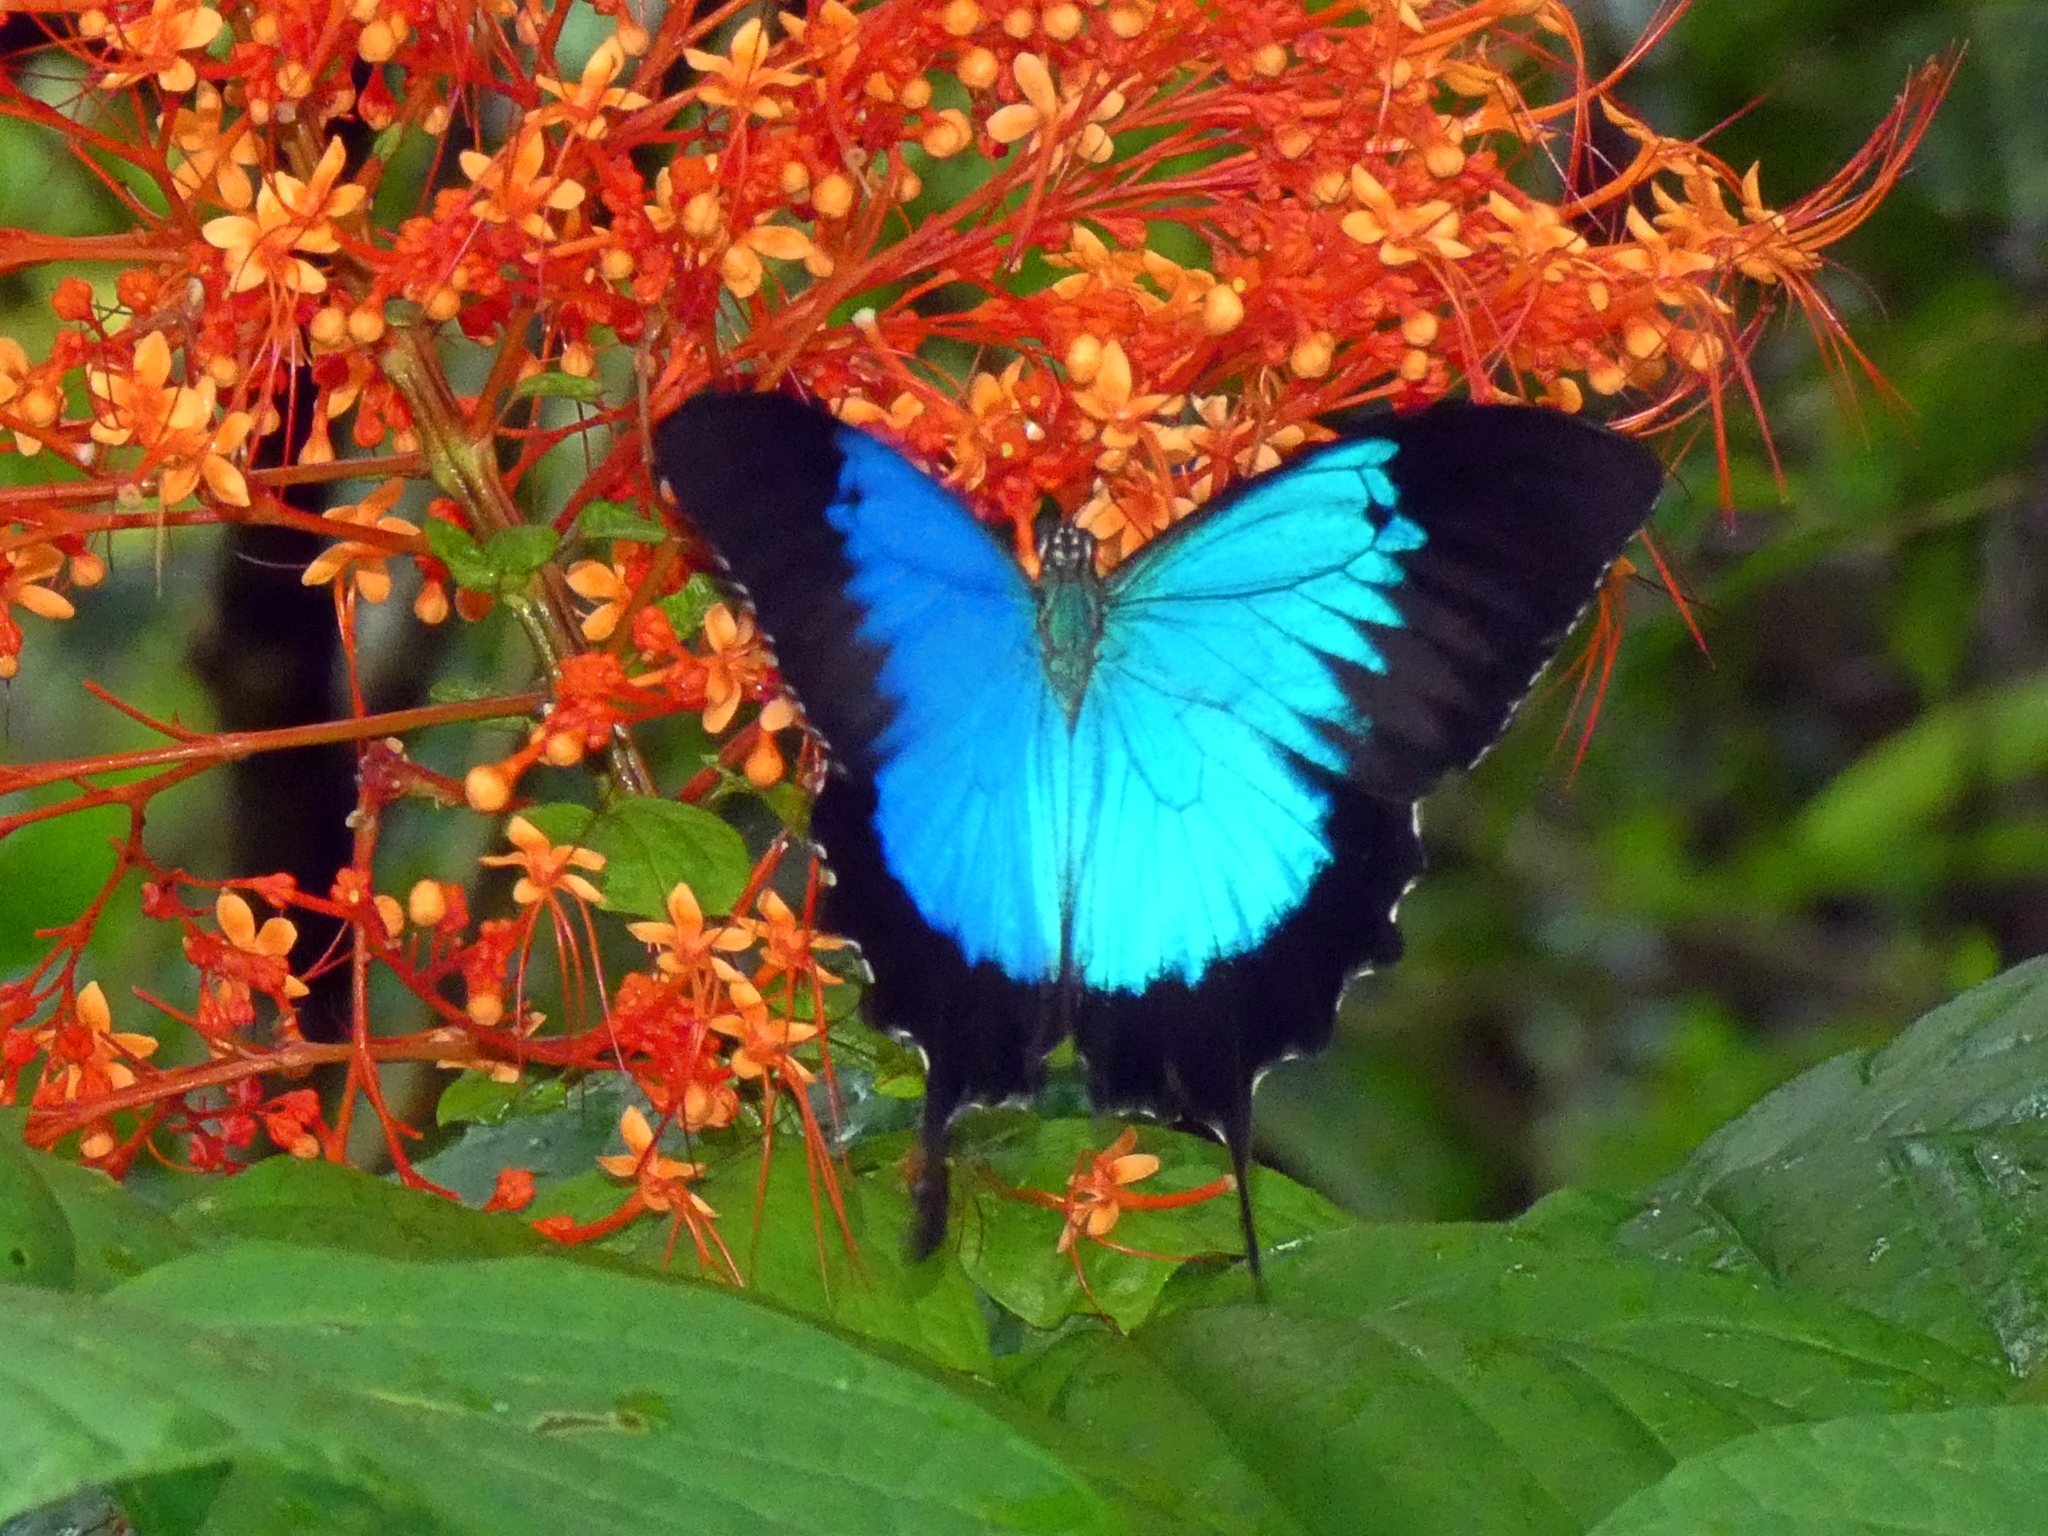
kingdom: Animalia
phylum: Arthropoda
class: Insecta
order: Lepidoptera
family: Papilionidae
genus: Papilio
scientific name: Papilio ulysses
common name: Blue emperor
